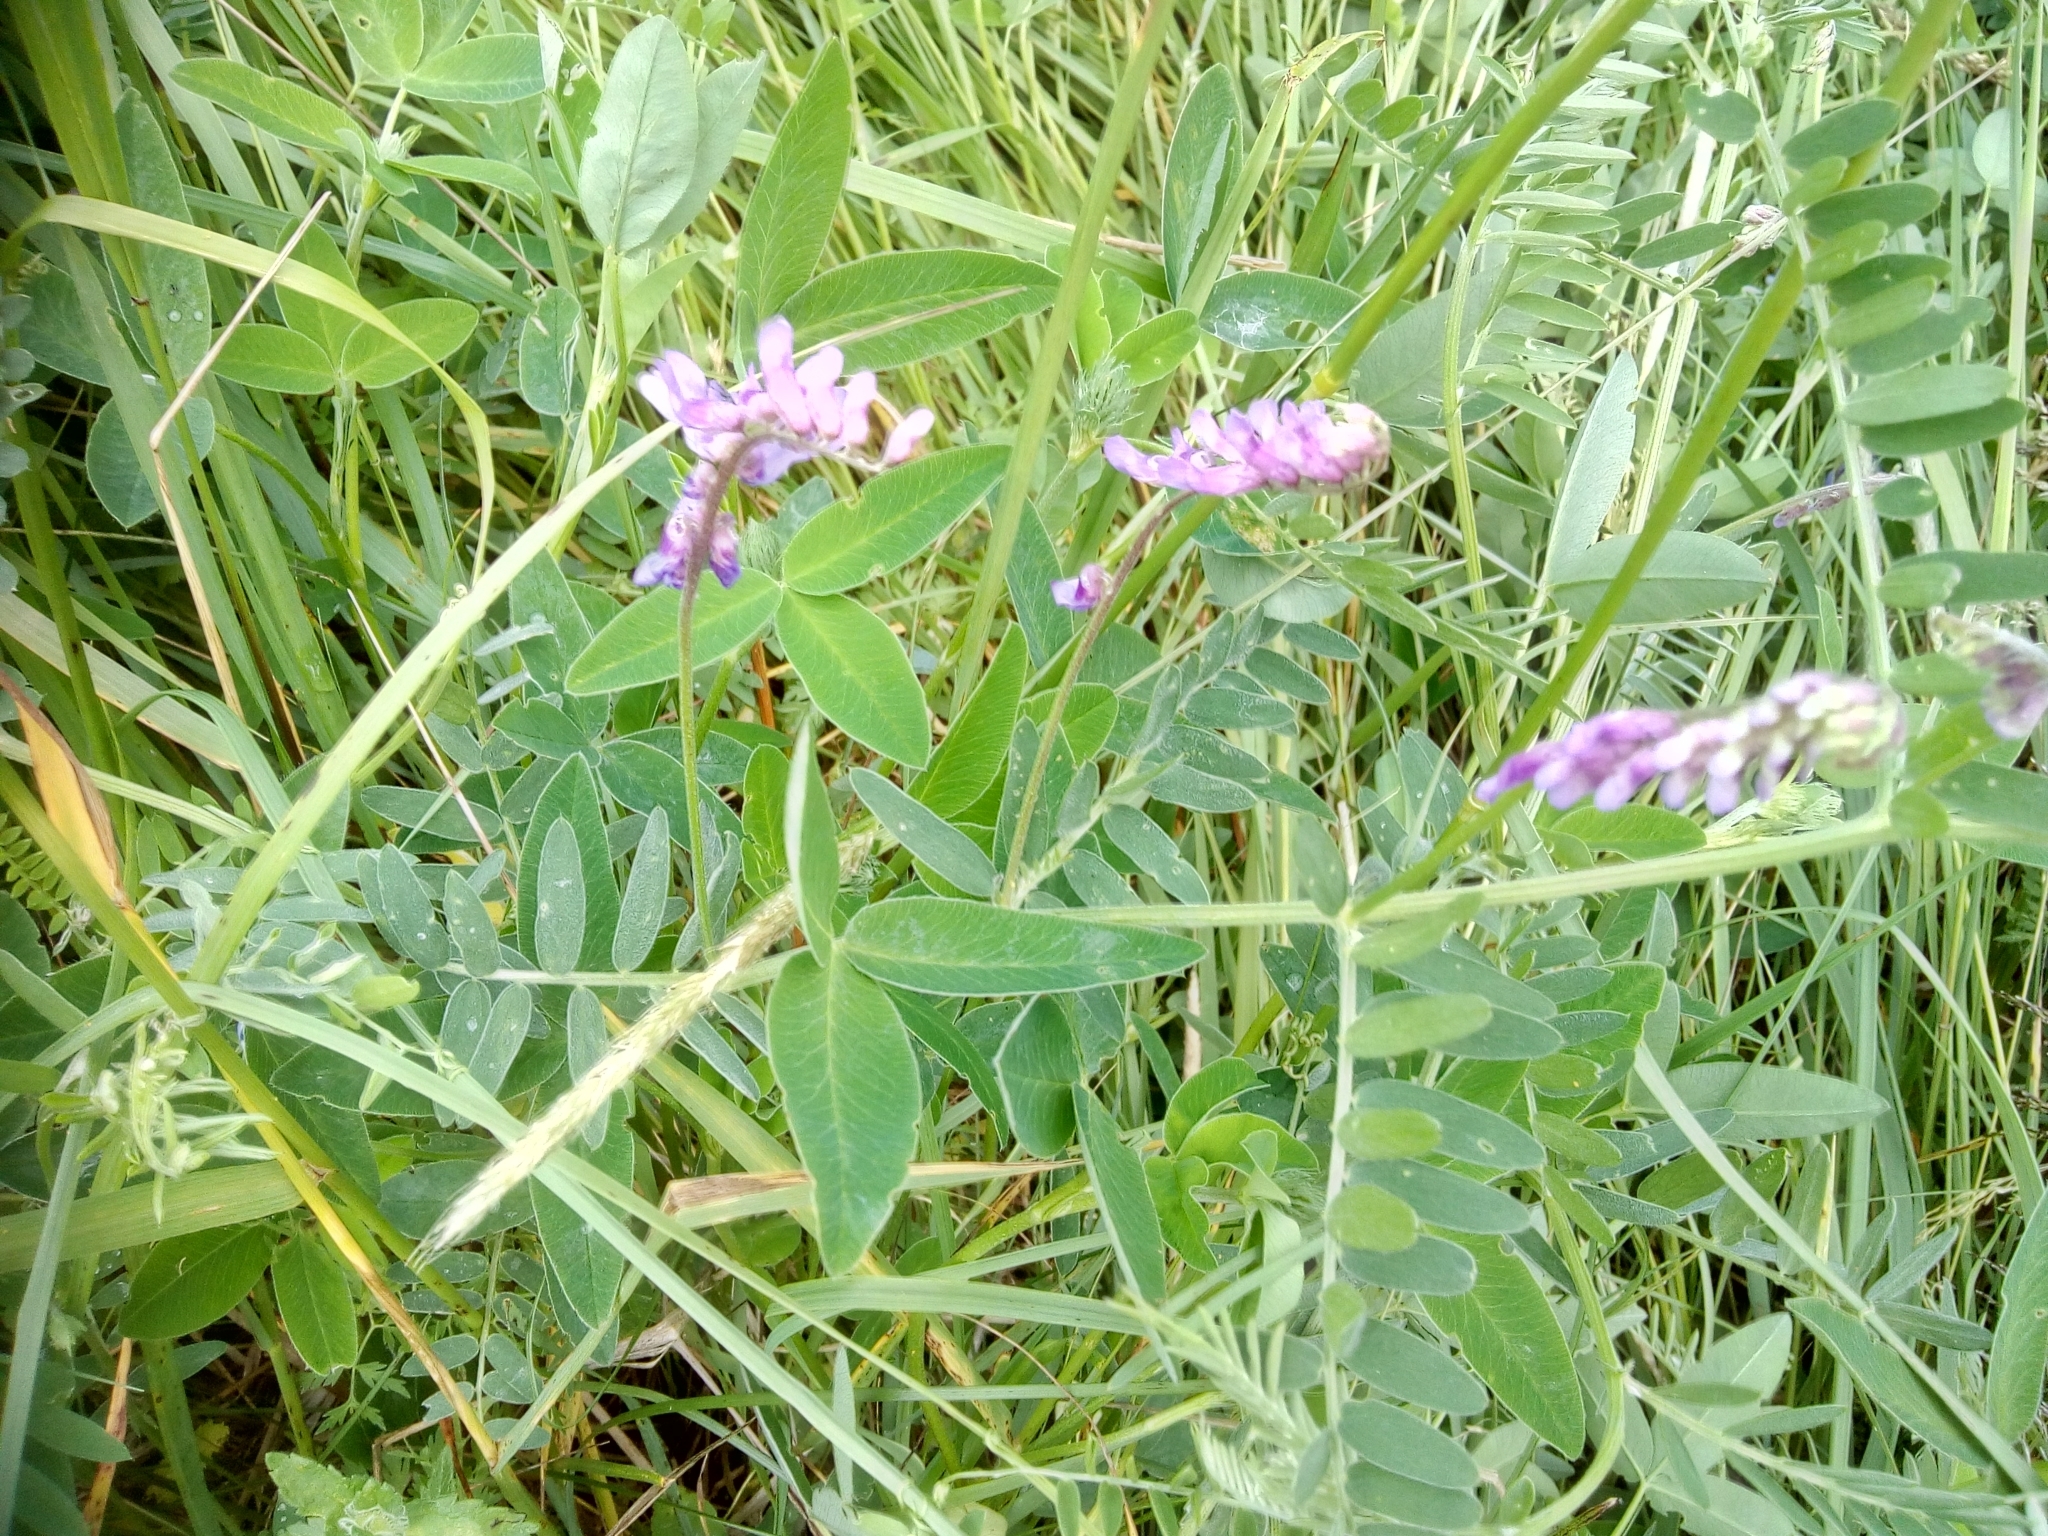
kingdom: Plantae
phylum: Tracheophyta
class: Magnoliopsida
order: Fabales
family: Fabaceae
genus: Vicia
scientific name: Vicia cracca
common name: Bird vetch
